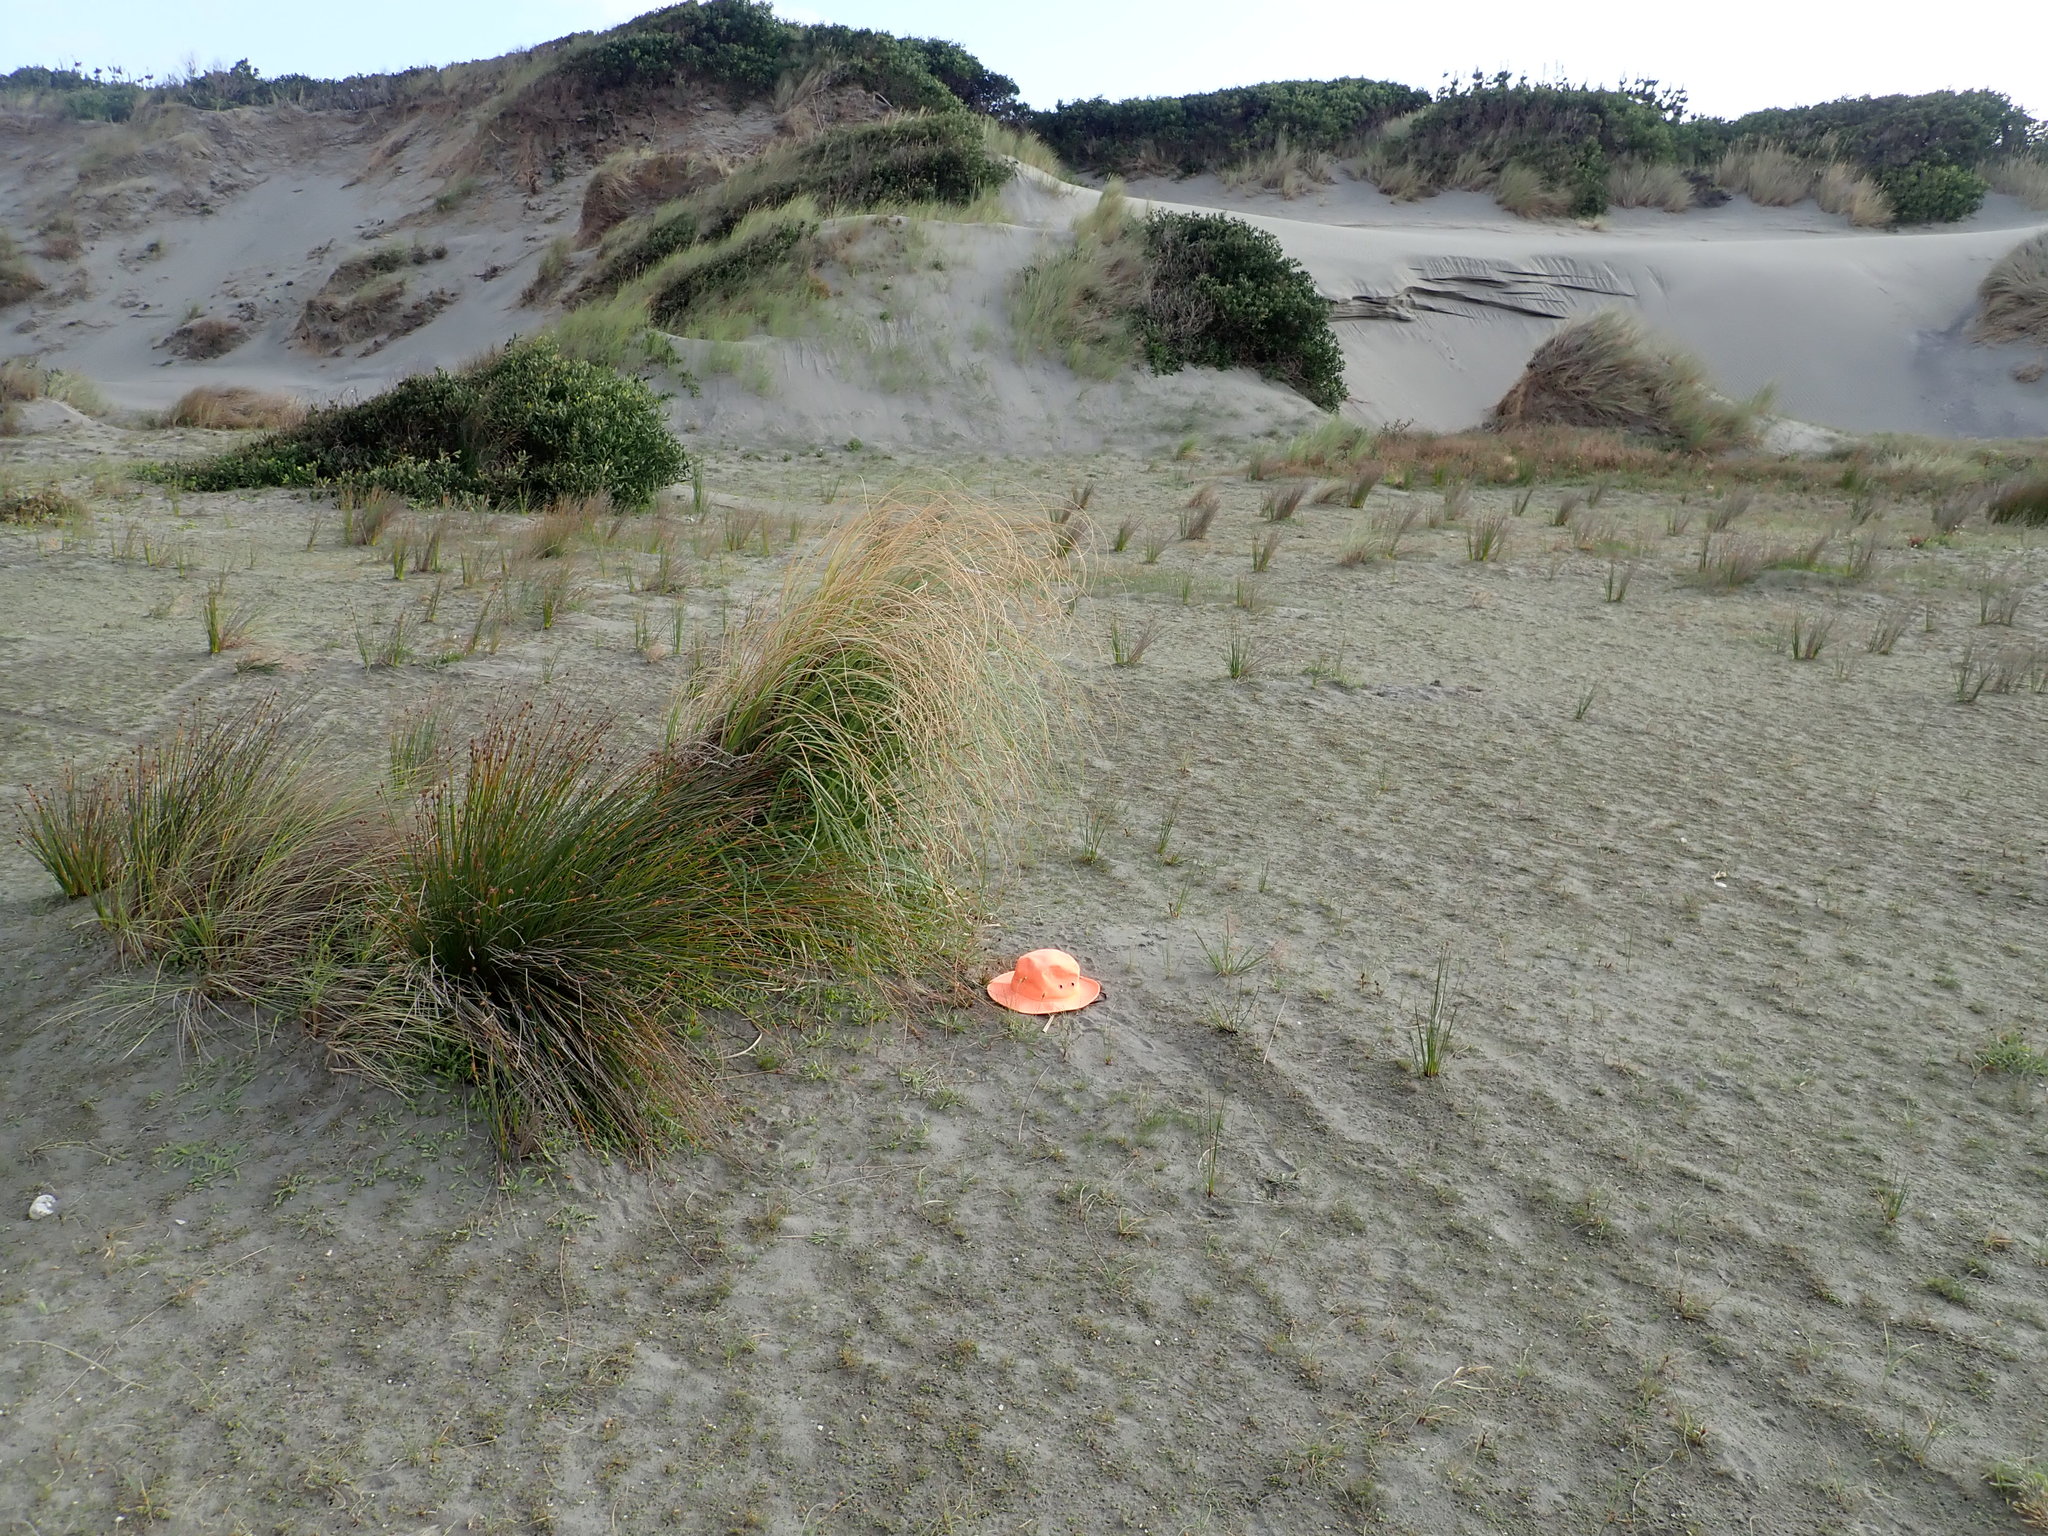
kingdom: Plantae
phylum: Tracheophyta
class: Liliopsida
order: Poales
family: Juncaceae
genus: Juncus
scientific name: Juncus caespiticius
